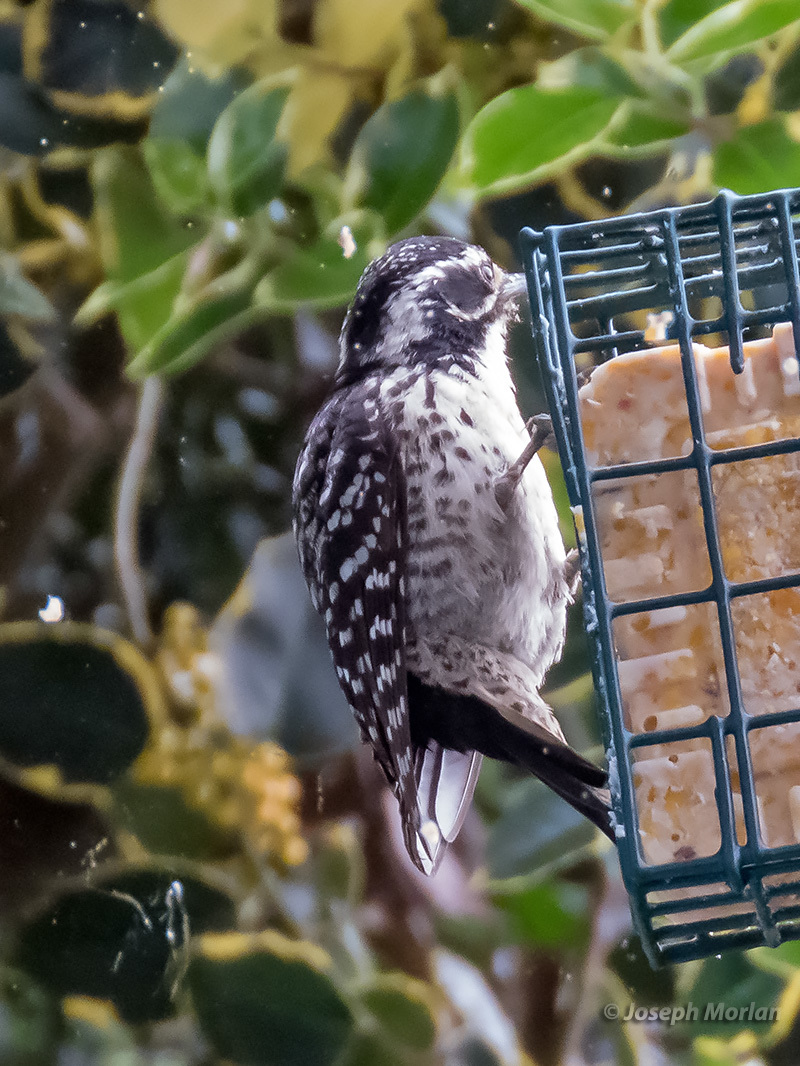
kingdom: Animalia
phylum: Chordata
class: Aves
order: Piciformes
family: Picidae
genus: Dryobates
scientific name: Dryobates nuttallii
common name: Nuttall's woodpecker
